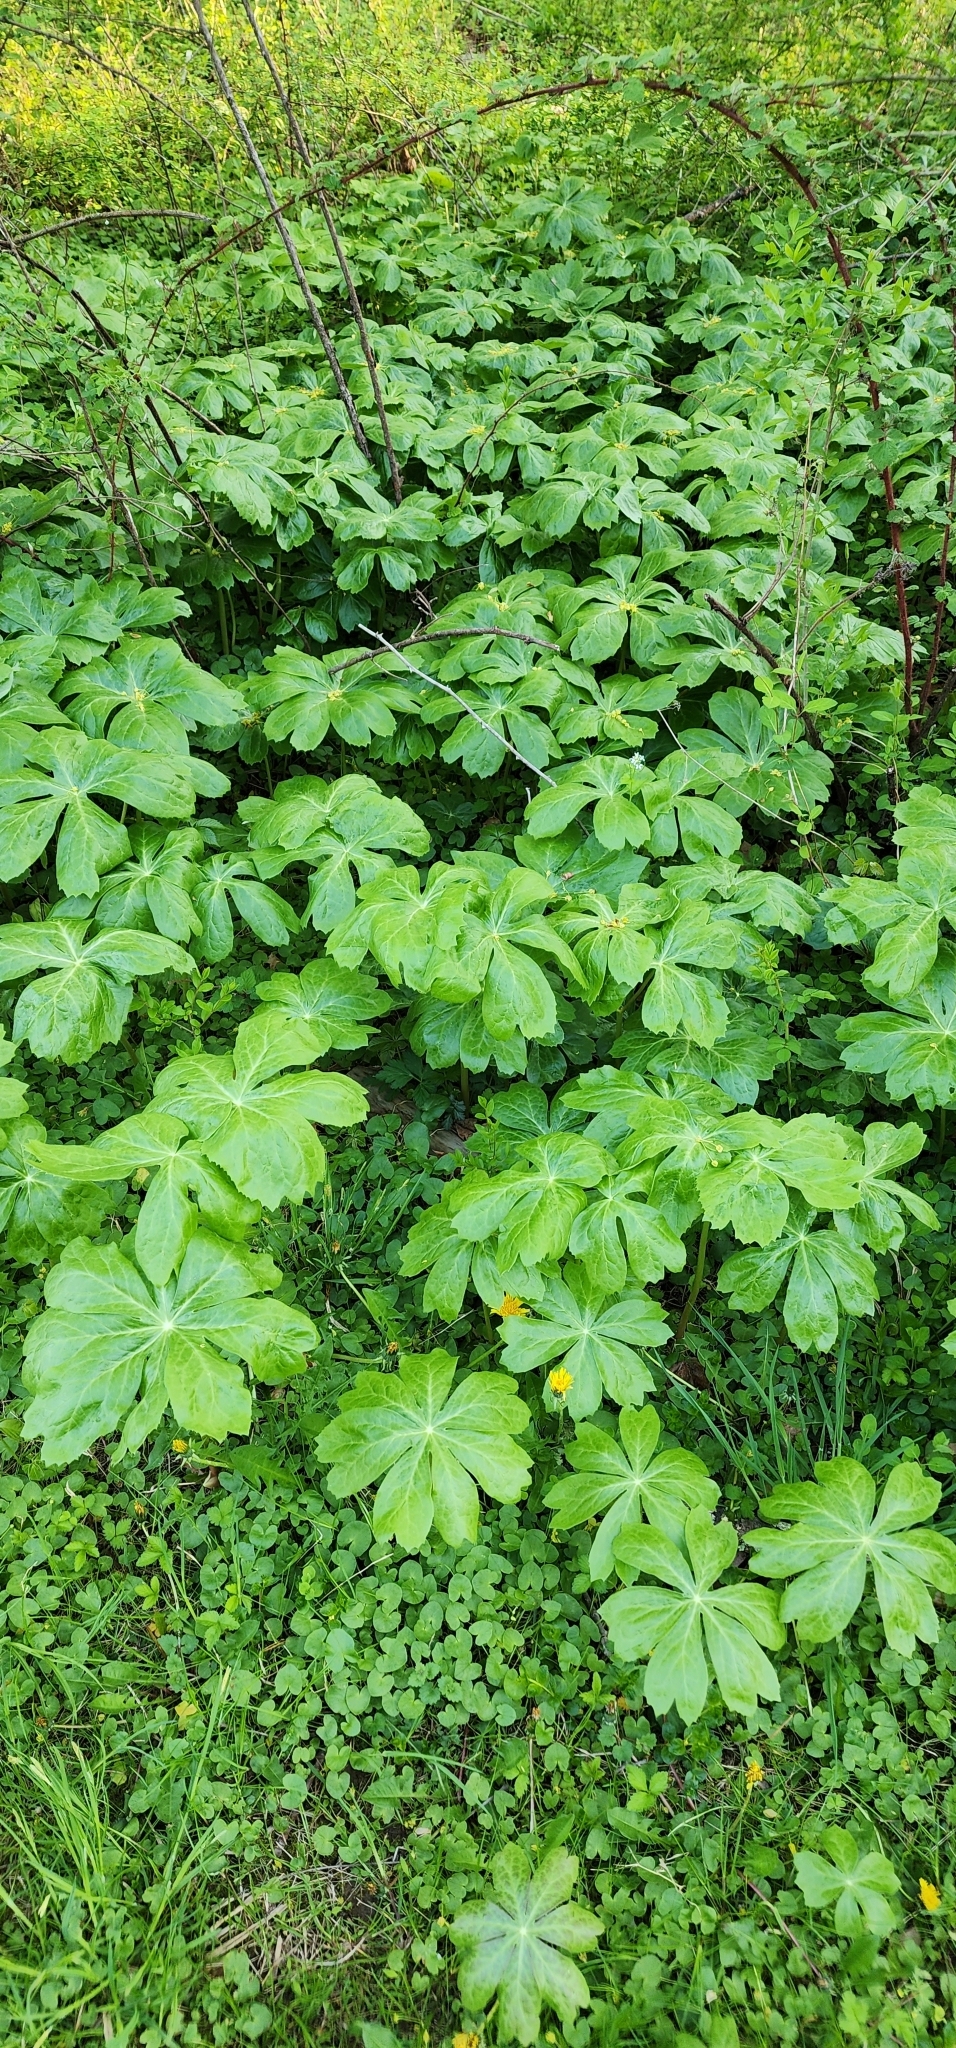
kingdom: Plantae
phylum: Tracheophyta
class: Magnoliopsida
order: Ranunculales
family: Berberidaceae
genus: Podophyllum
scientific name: Podophyllum peltatum
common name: Wild mandrake
